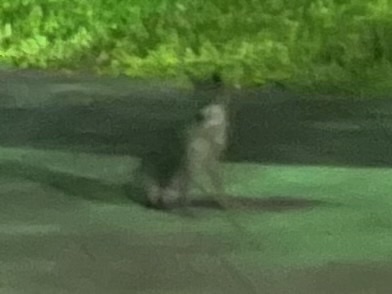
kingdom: Animalia
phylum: Chordata
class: Mammalia
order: Carnivora
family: Canidae
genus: Urocyon
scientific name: Urocyon cinereoargenteus
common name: Gray fox
